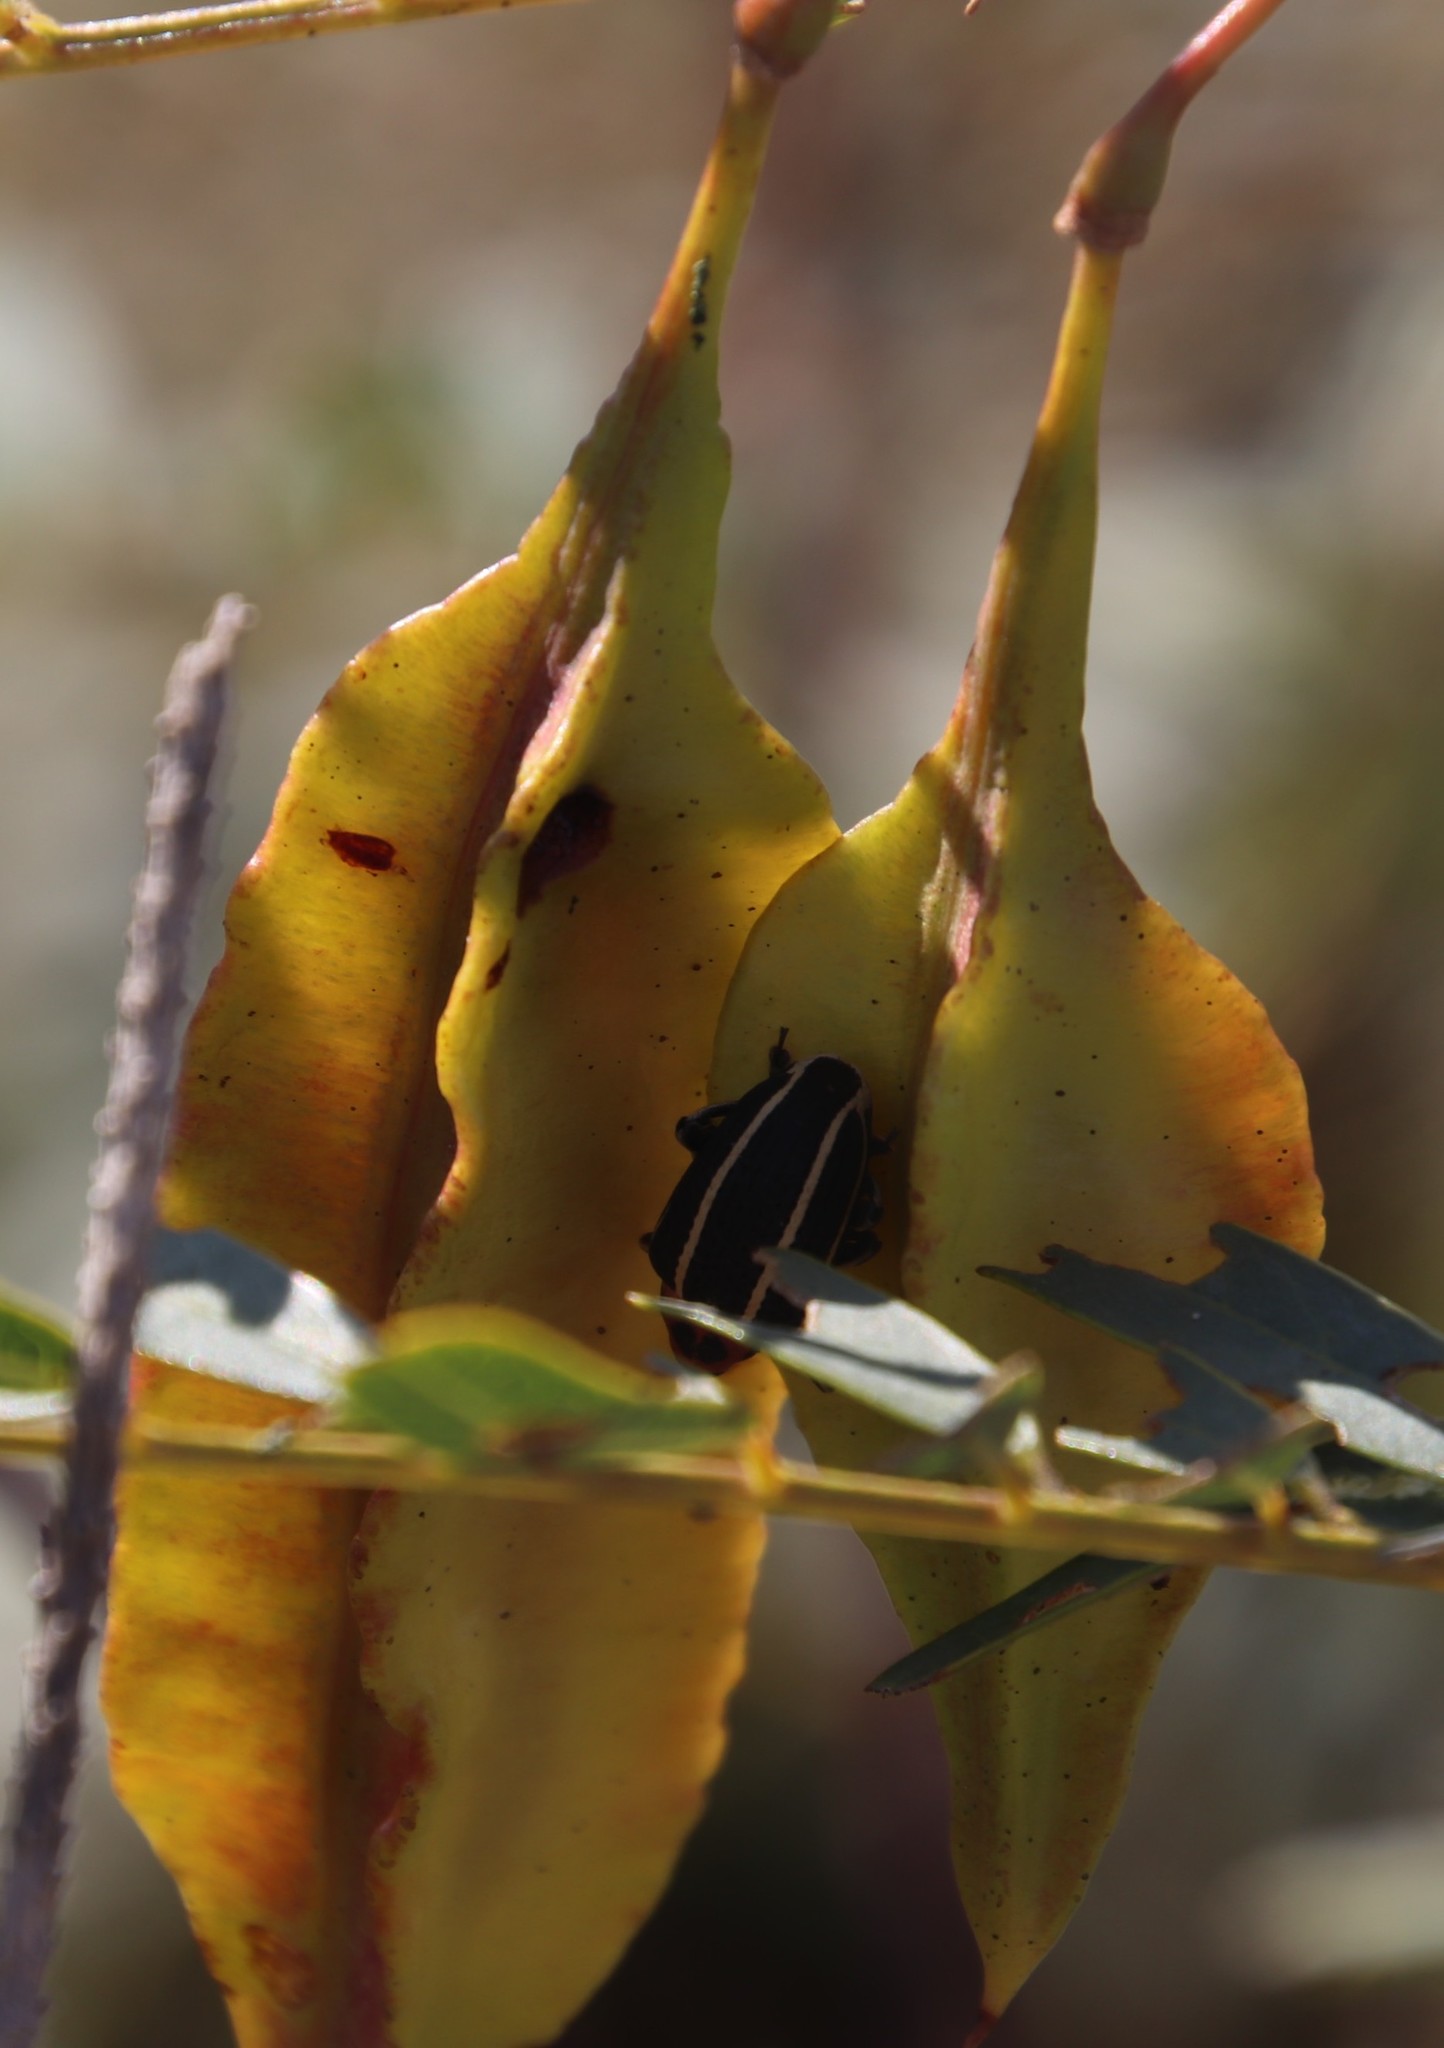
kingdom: Animalia
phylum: Arthropoda
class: Insecta
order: Coleoptera
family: Curculionidae
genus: Neodiplogrammus
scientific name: Neodiplogrammus
